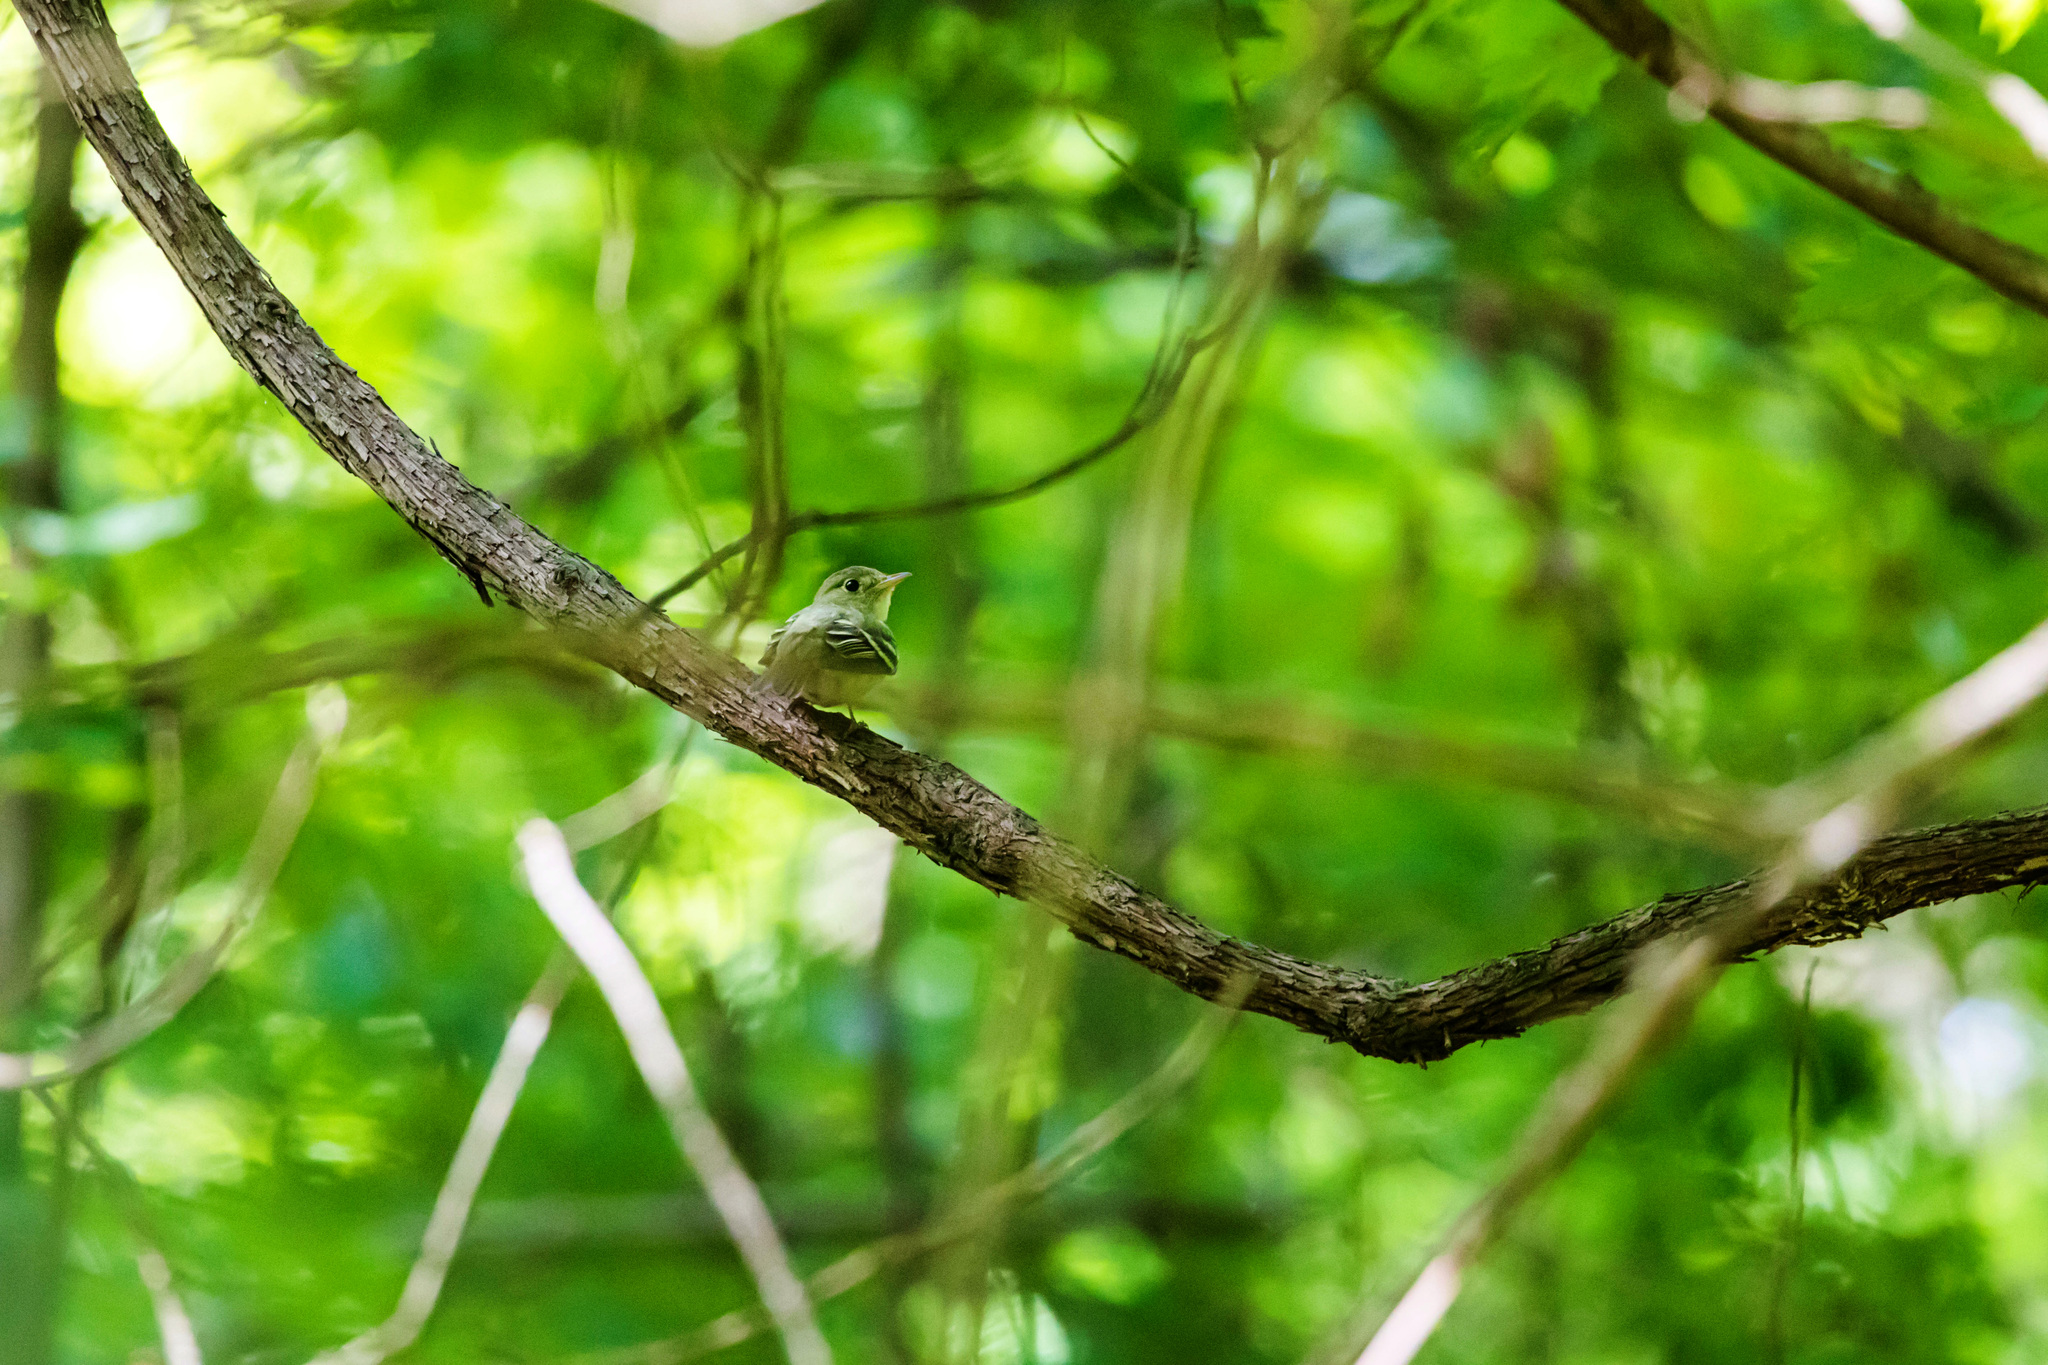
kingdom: Animalia
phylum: Chordata
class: Aves
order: Passeriformes
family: Tyrannidae
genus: Empidonax
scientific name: Empidonax virescens
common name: Acadian flycatcher
